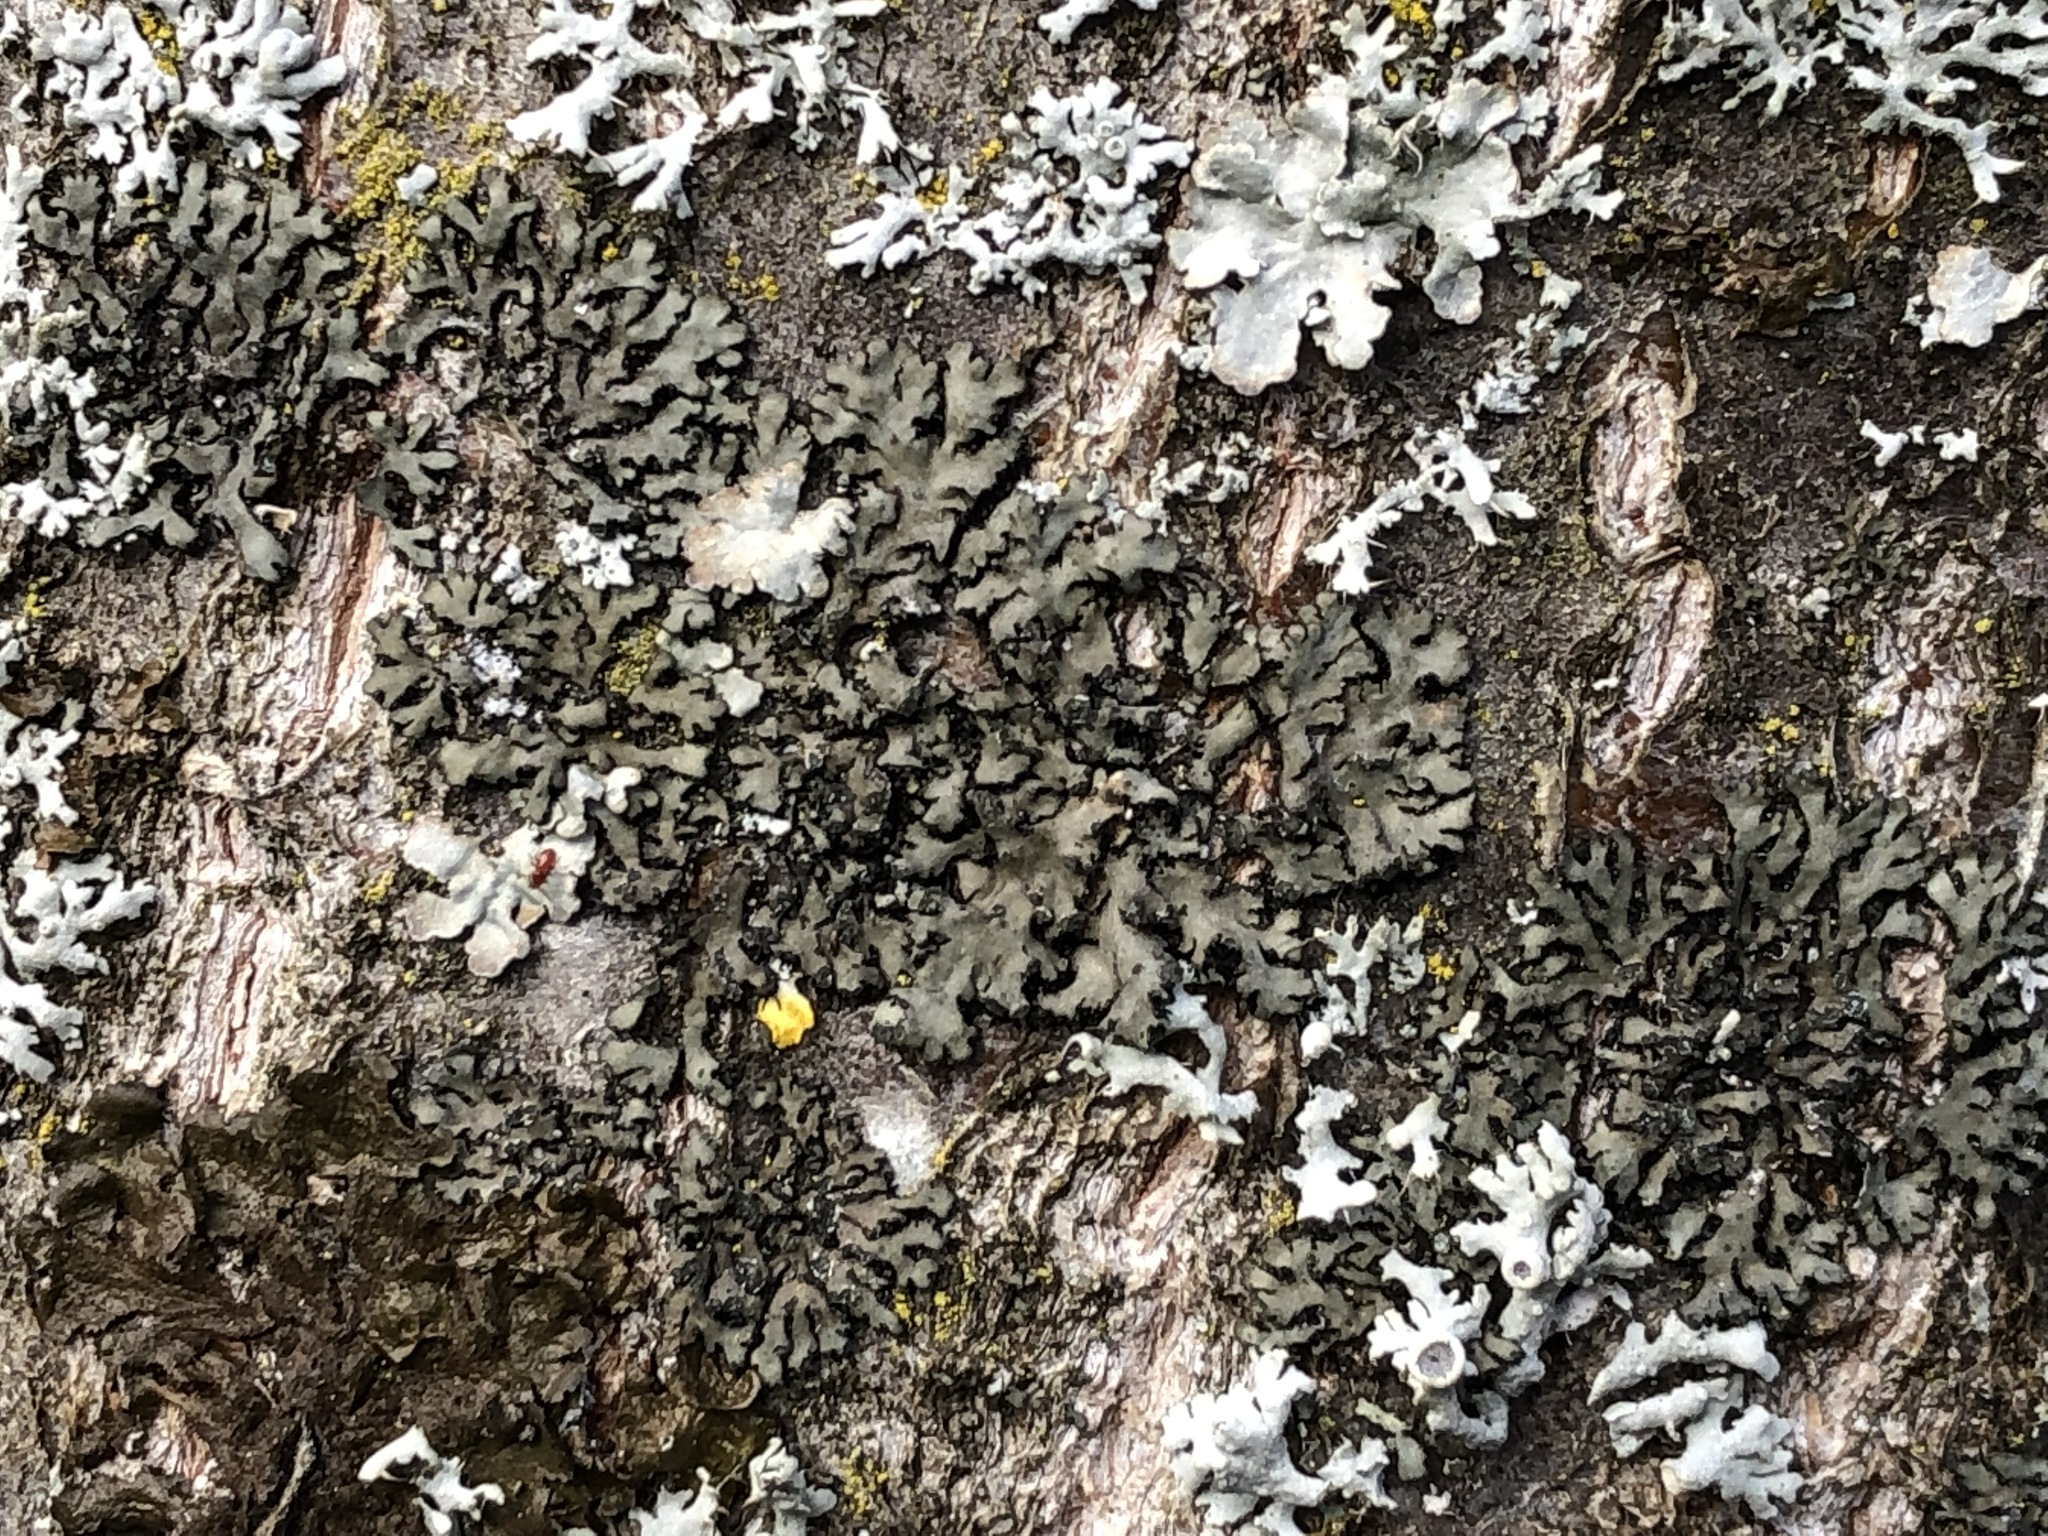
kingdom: Fungi
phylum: Ascomycota
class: Lecanoromycetes
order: Caliciales
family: Physciaceae
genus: Phaeophyscia
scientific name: Phaeophyscia orbicularis
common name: Mealy shadow lichen
